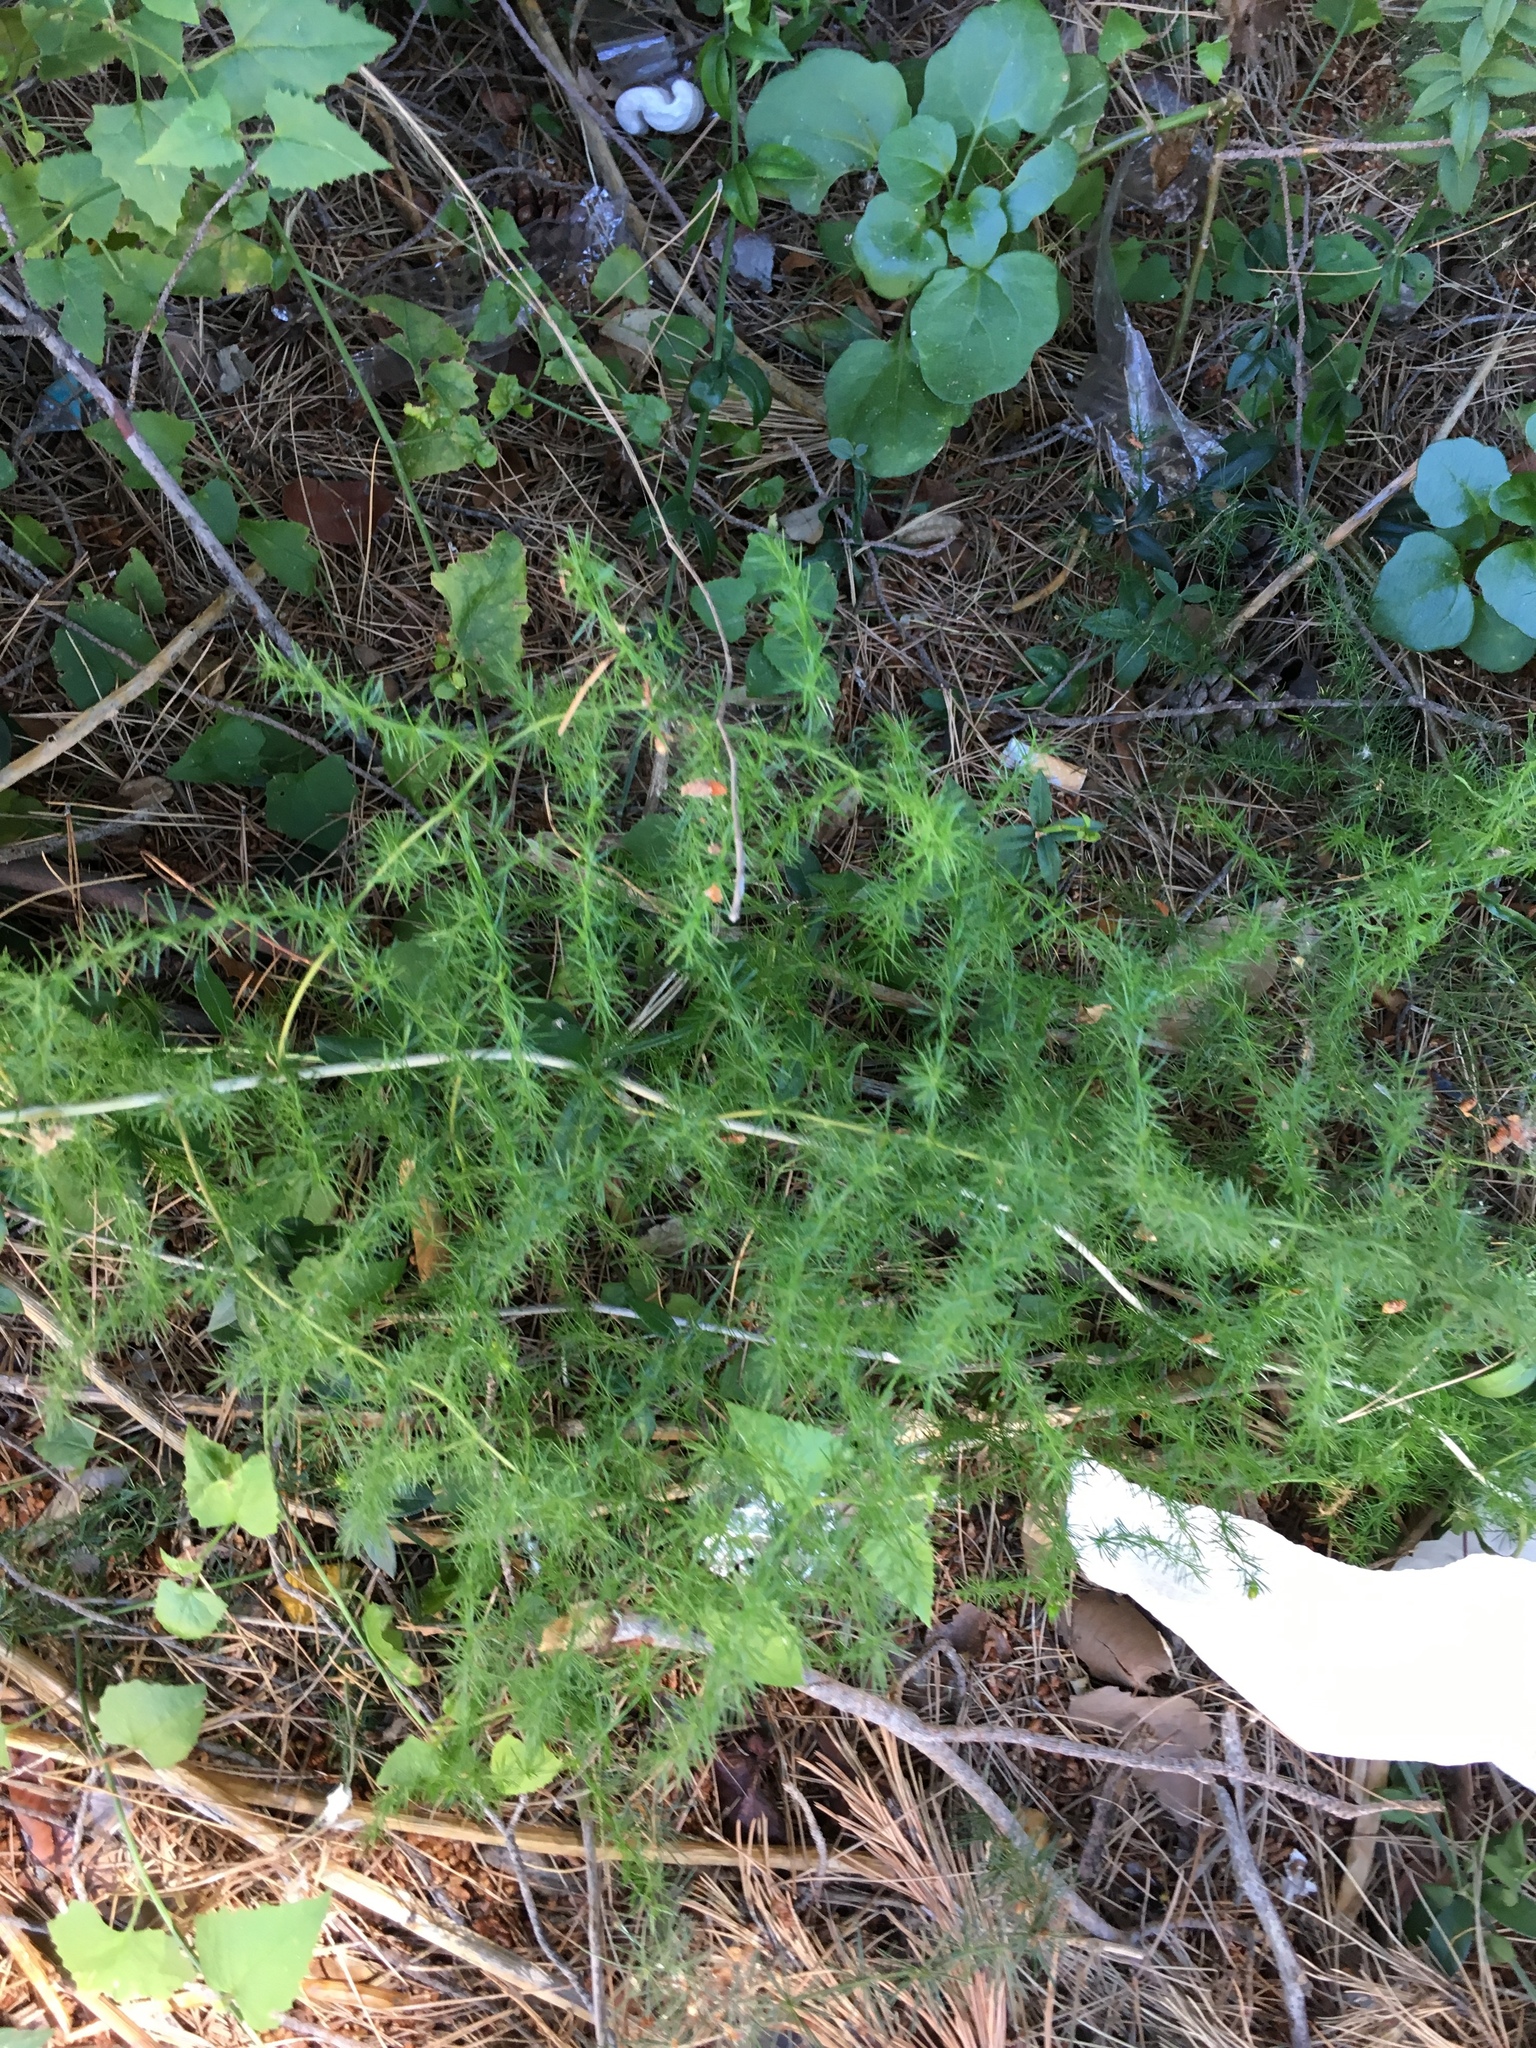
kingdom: Plantae
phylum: Tracheophyta
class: Liliopsida
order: Asparagales
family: Asparagaceae
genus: Asparagus
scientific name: Asparagus acutifolius
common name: Wild asparagus
